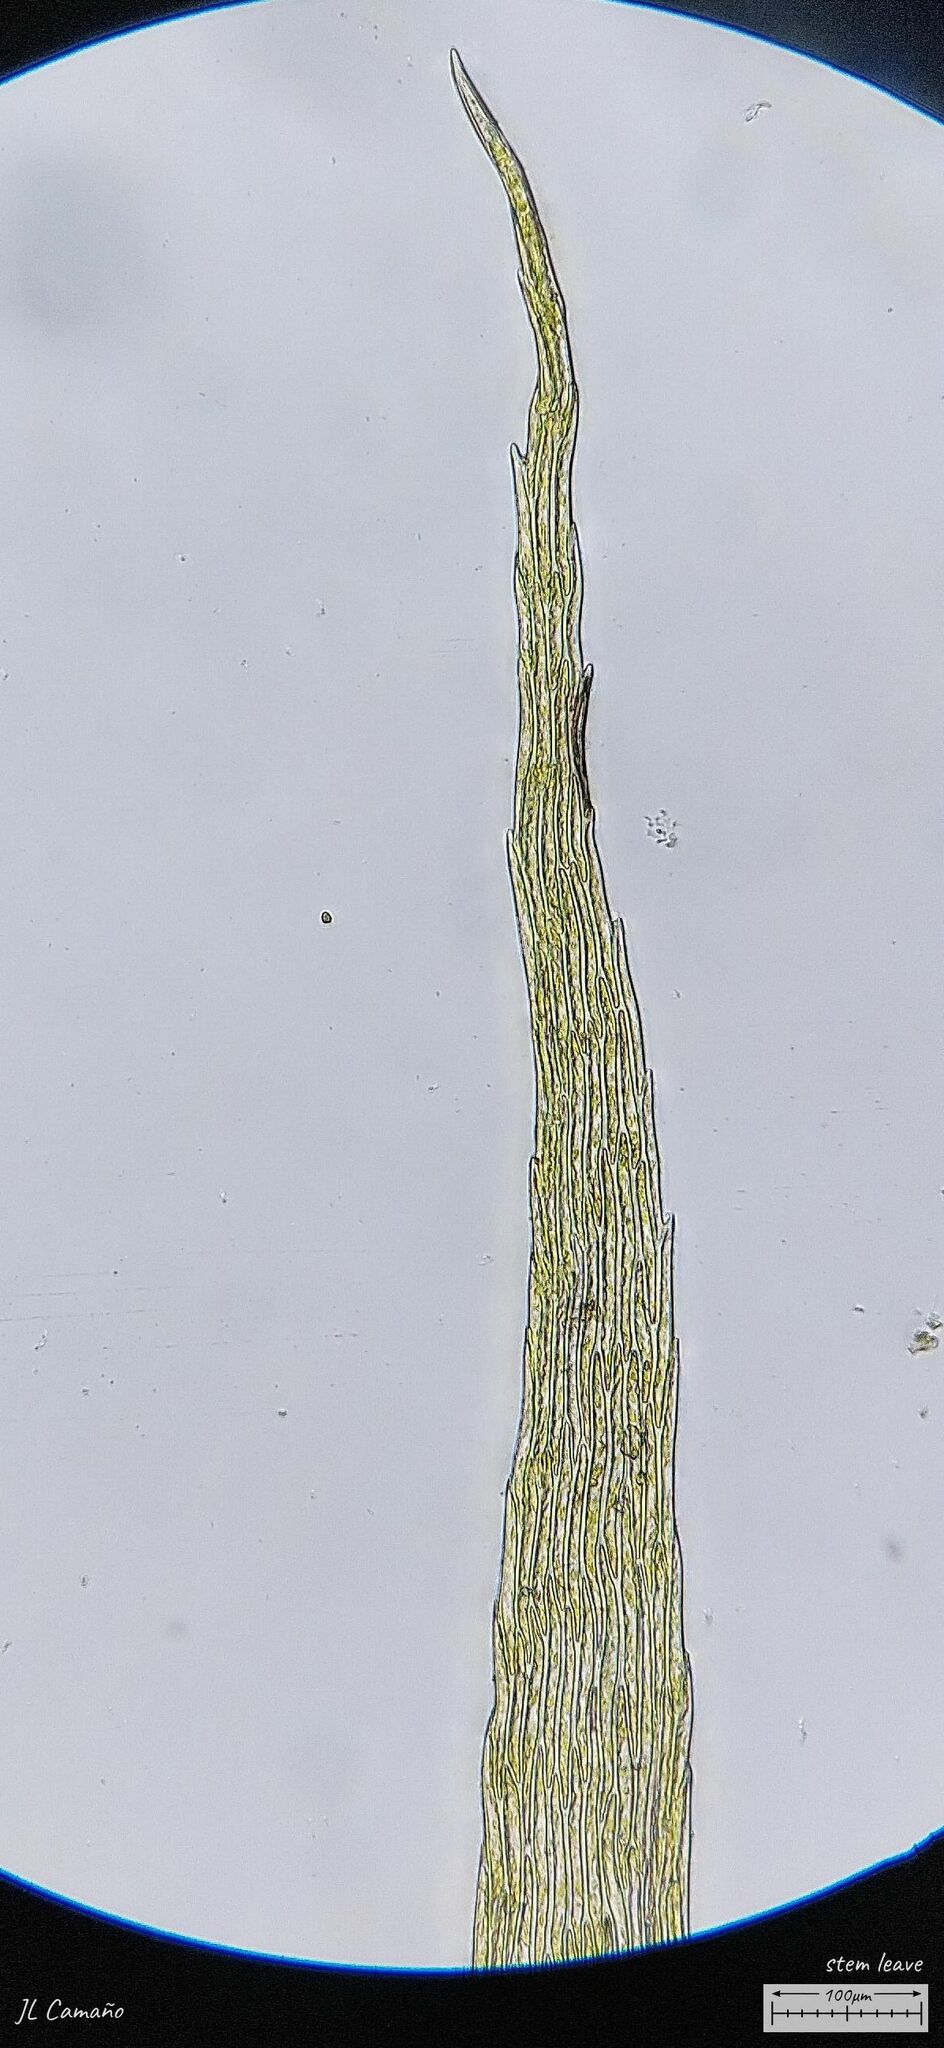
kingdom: Plantae
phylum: Bryophyta
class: Bryopsida
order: Hypnales
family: Brachytheciaceae
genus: Brachythecium
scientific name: Brachythecium glareosum
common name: Streaky feather-moss
